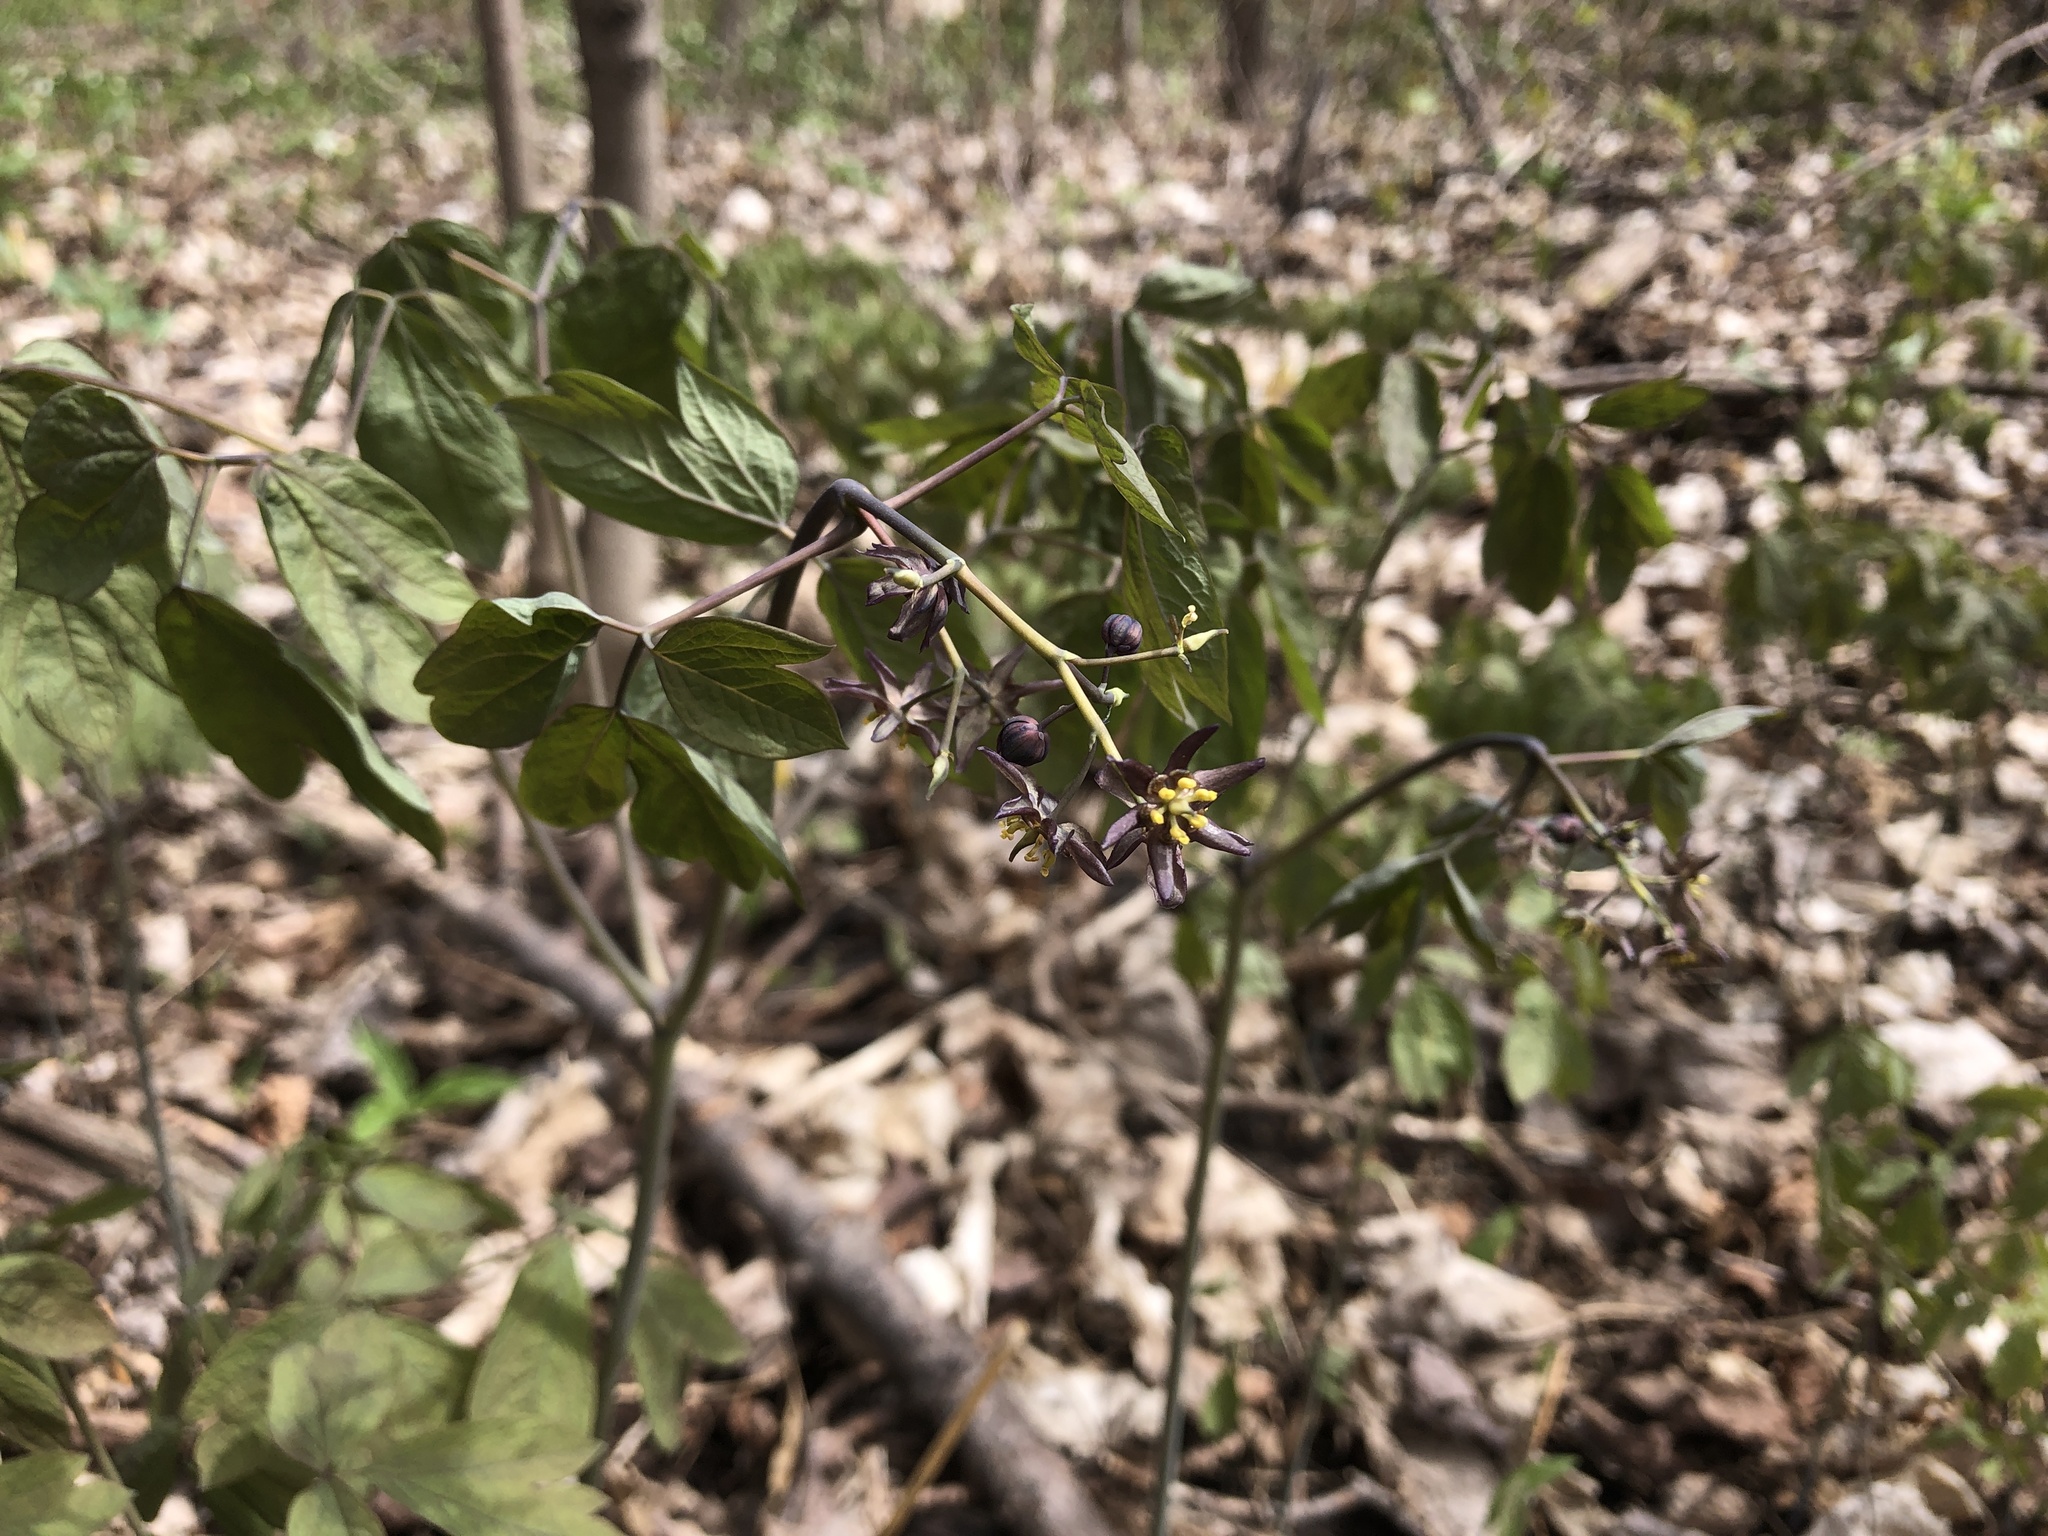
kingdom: Plantae
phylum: Tracheophyta
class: Magnoliopsida
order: Ranunculales
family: Berberidaceae
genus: Caulophyllum
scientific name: Caulophyllum giganteum
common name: Blue cohosh
